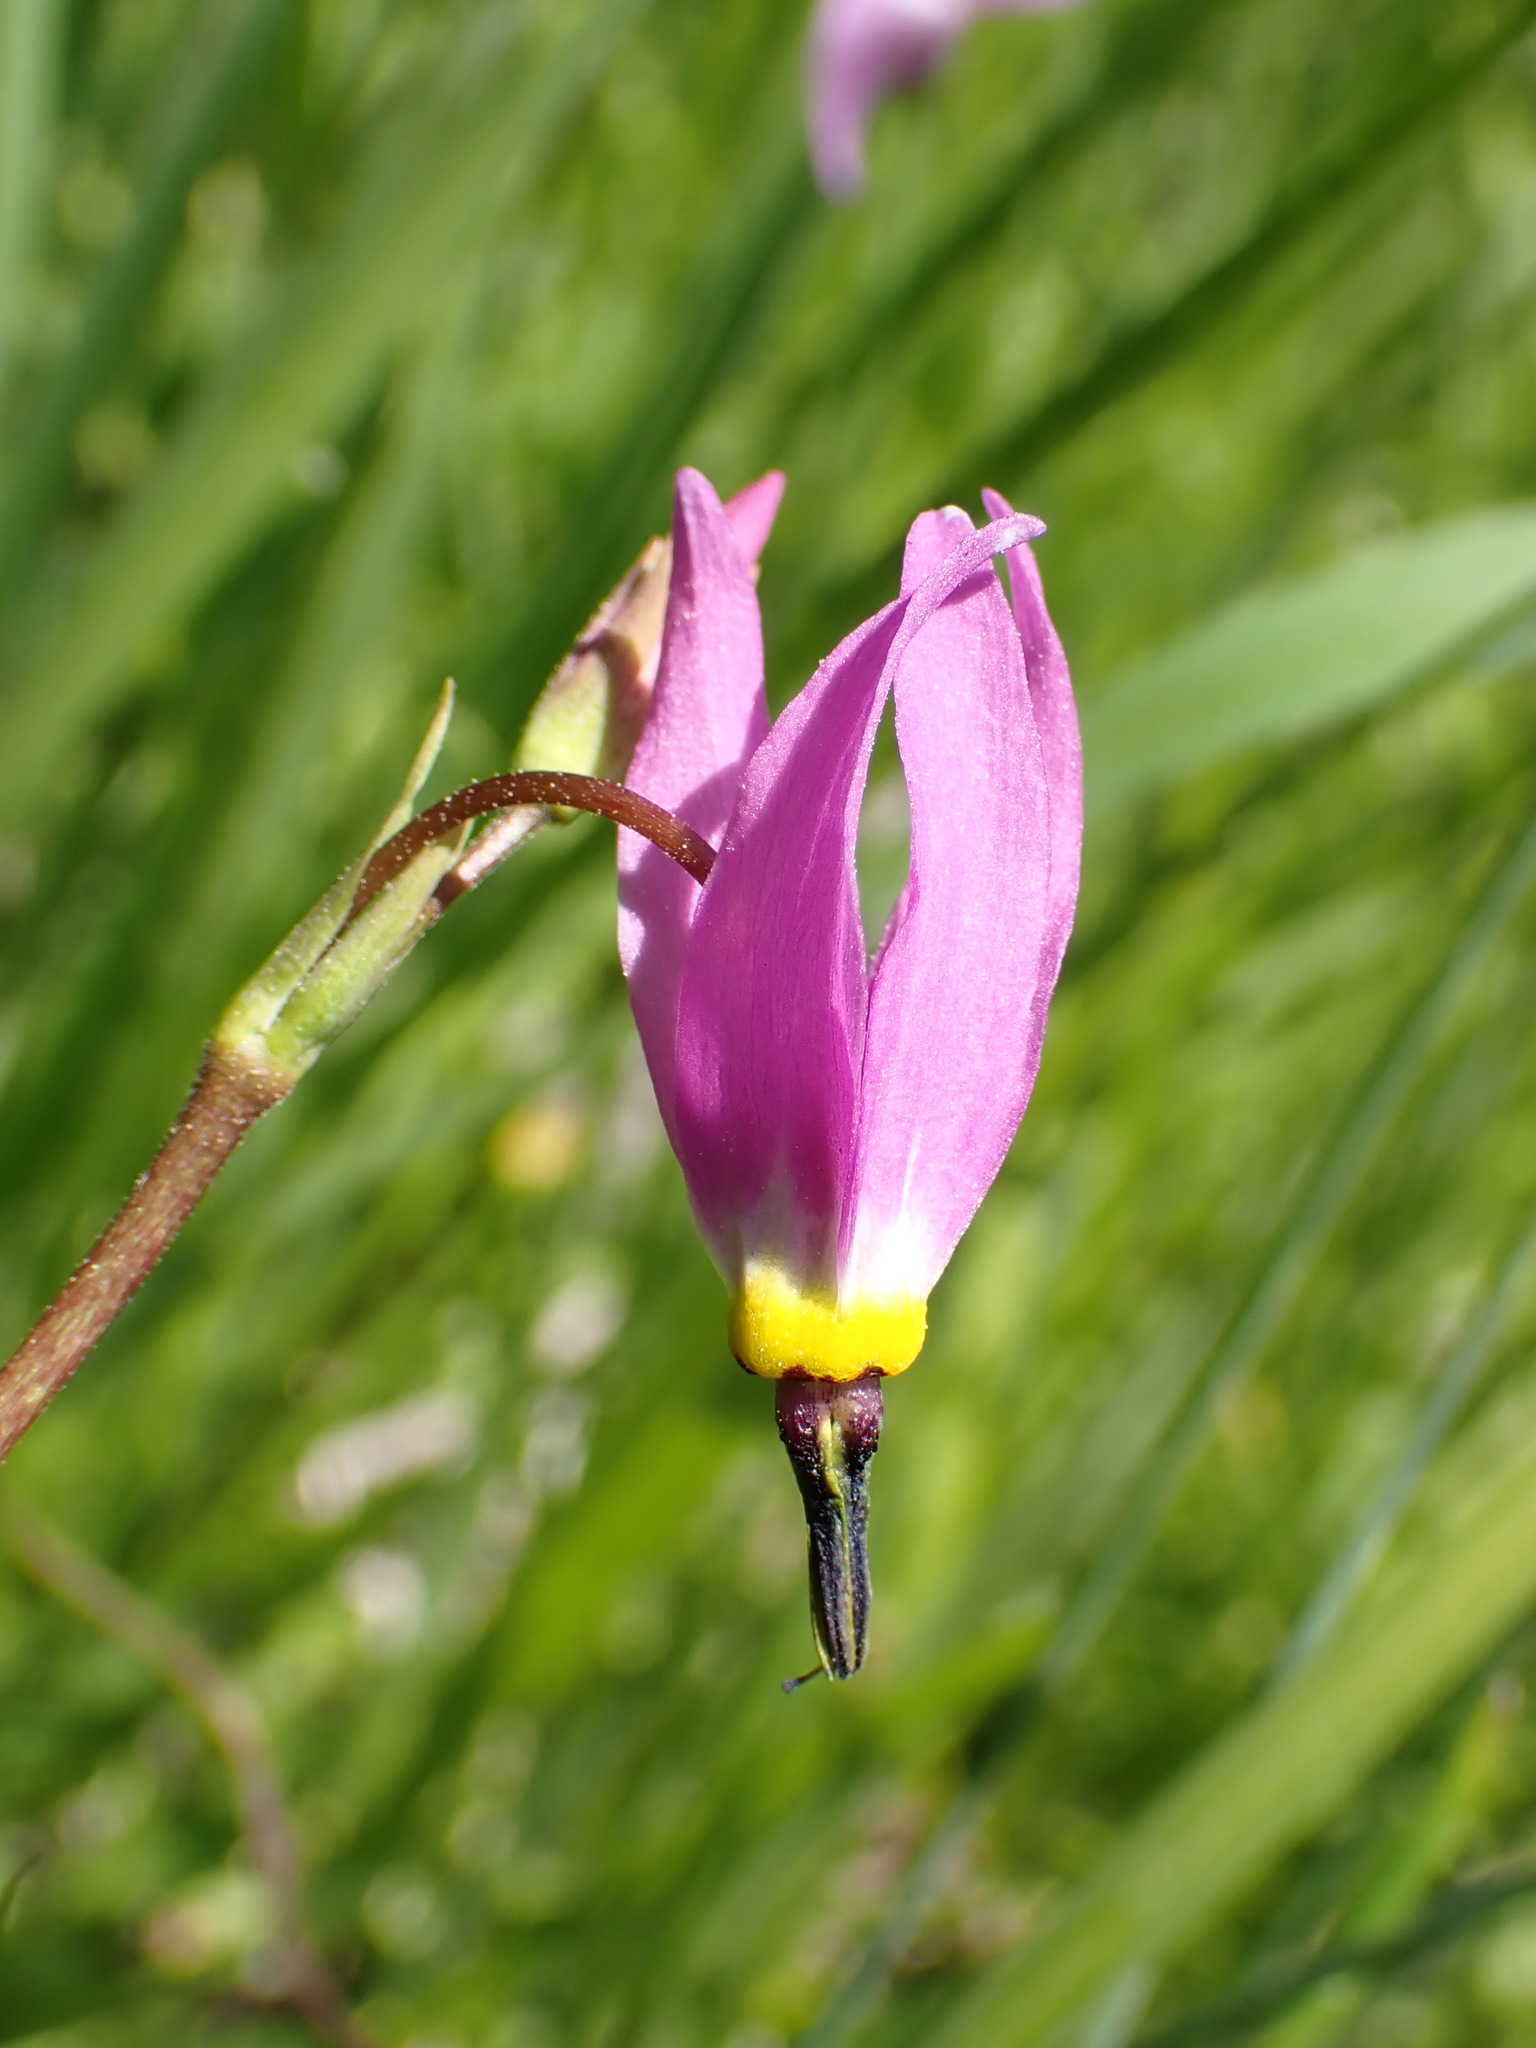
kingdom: Plantae
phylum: Tracheophyta
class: Magnoliopsida
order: Ericales
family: Primulaceae
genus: Dodecatheon
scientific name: Dodecatheon alpinum
